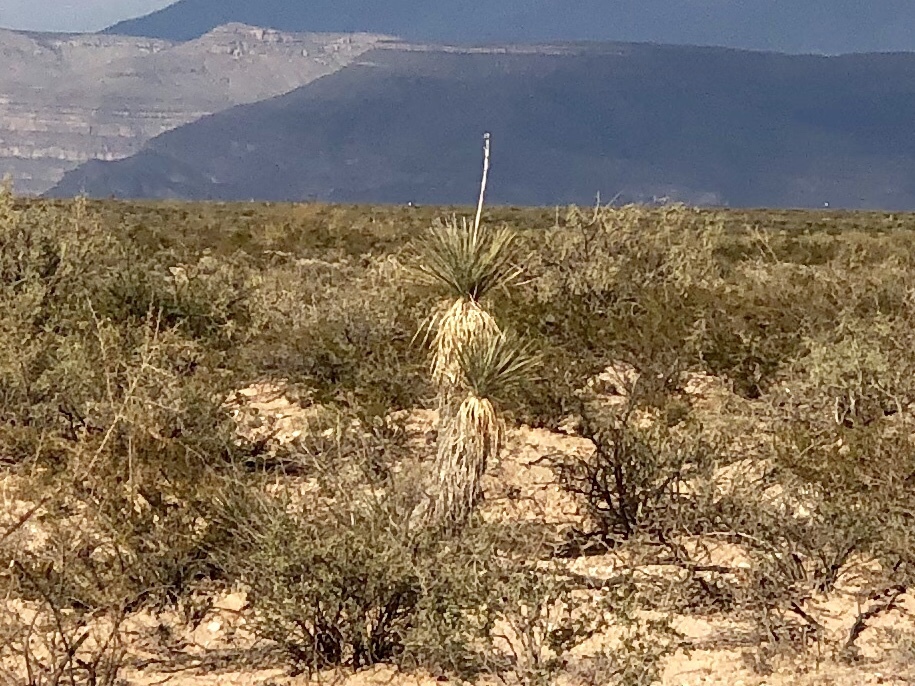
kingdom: Plantae
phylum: Tracheophyta
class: Liliopsida
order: Asparagales
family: Asparagaceae
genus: Yucca
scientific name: Yucca elata
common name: Palmella
